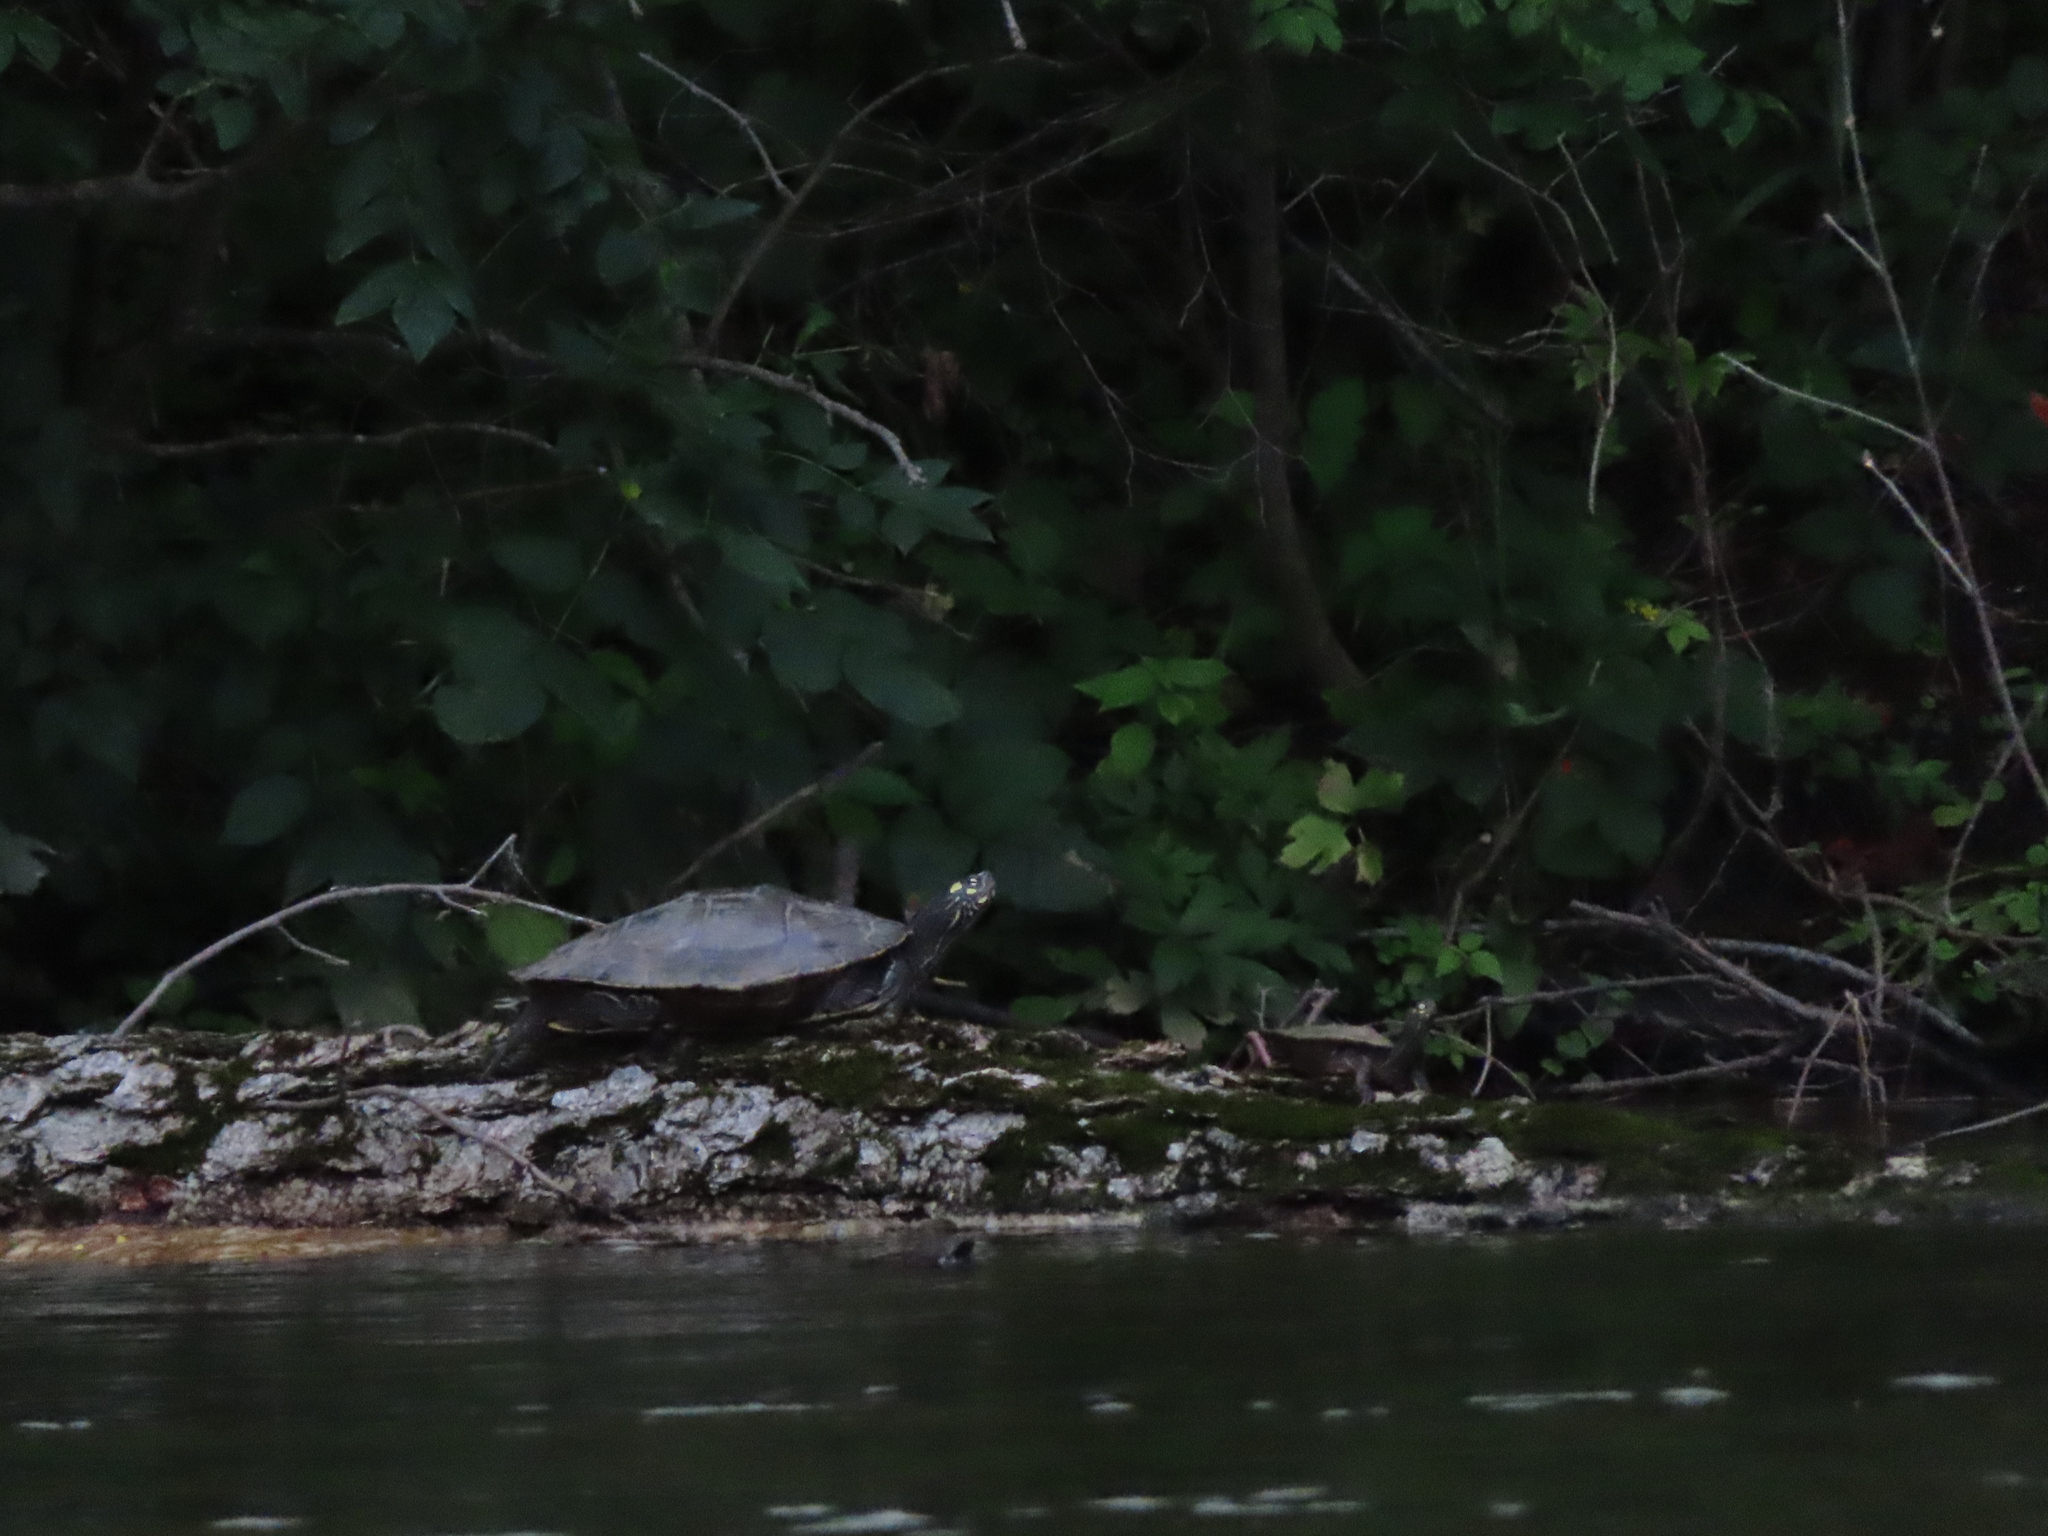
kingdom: Animalia
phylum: Chordata
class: Testudines
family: Emydidae
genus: Graptemys
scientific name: Graptemys ouachitensis
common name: Ouachita map turtle
